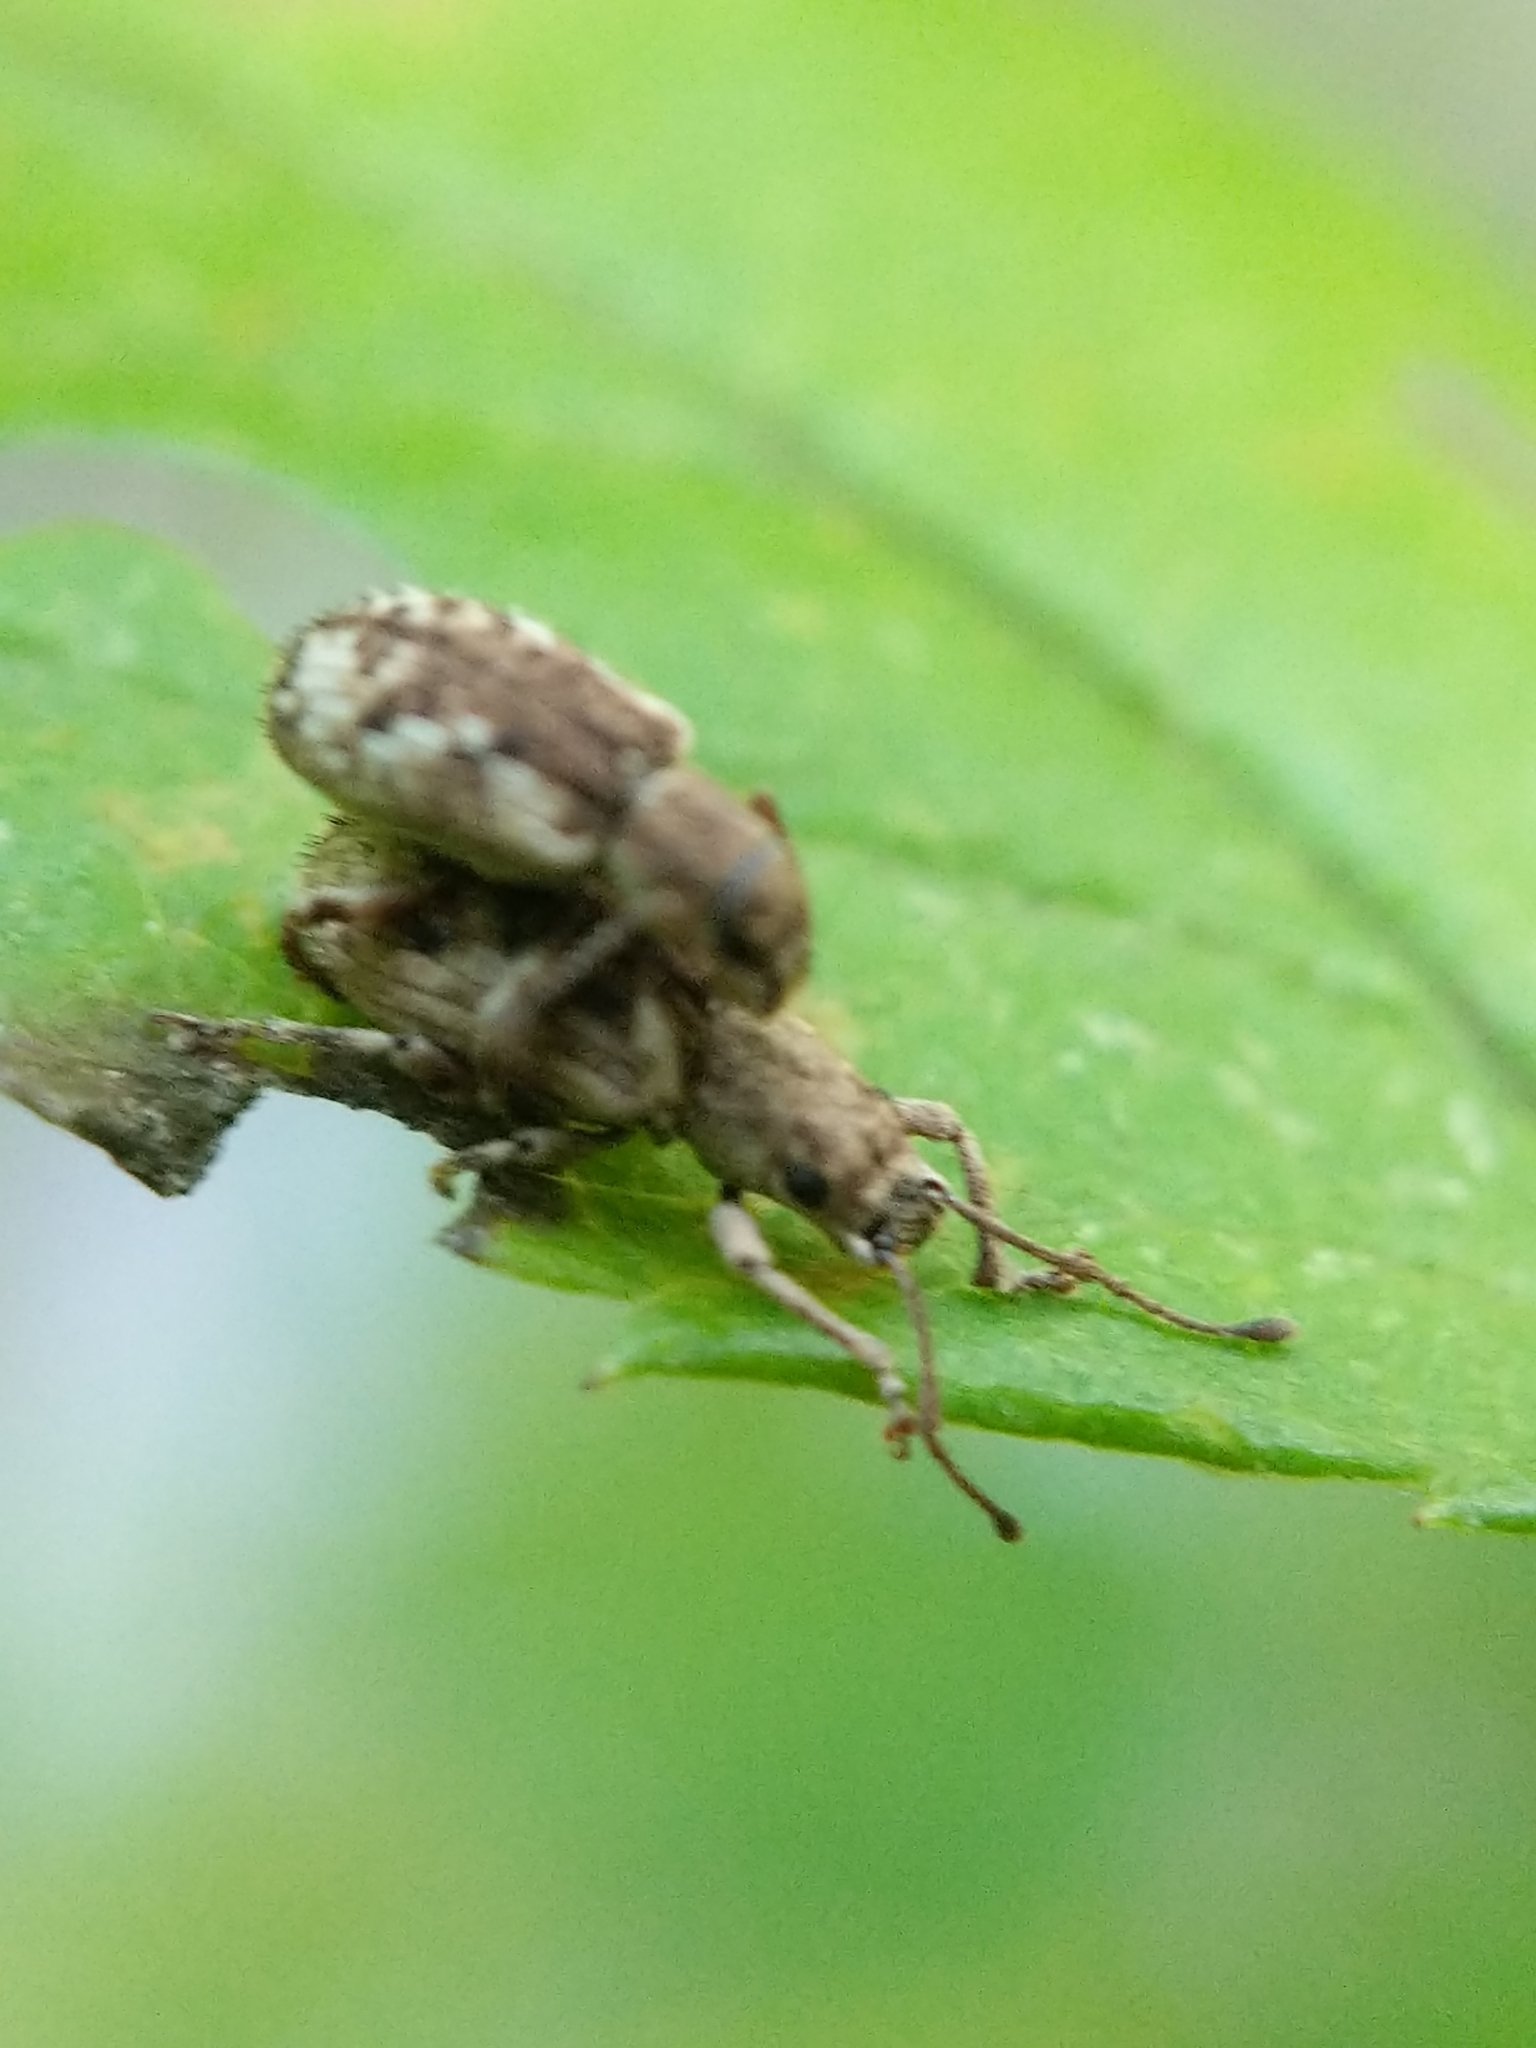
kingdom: Animalia
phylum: Arthropoda
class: Insecta
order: Coleoptera
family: Curculionidae
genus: Pseudoedophrys
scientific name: Pseudoedophrys hilleri
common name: Weevil
